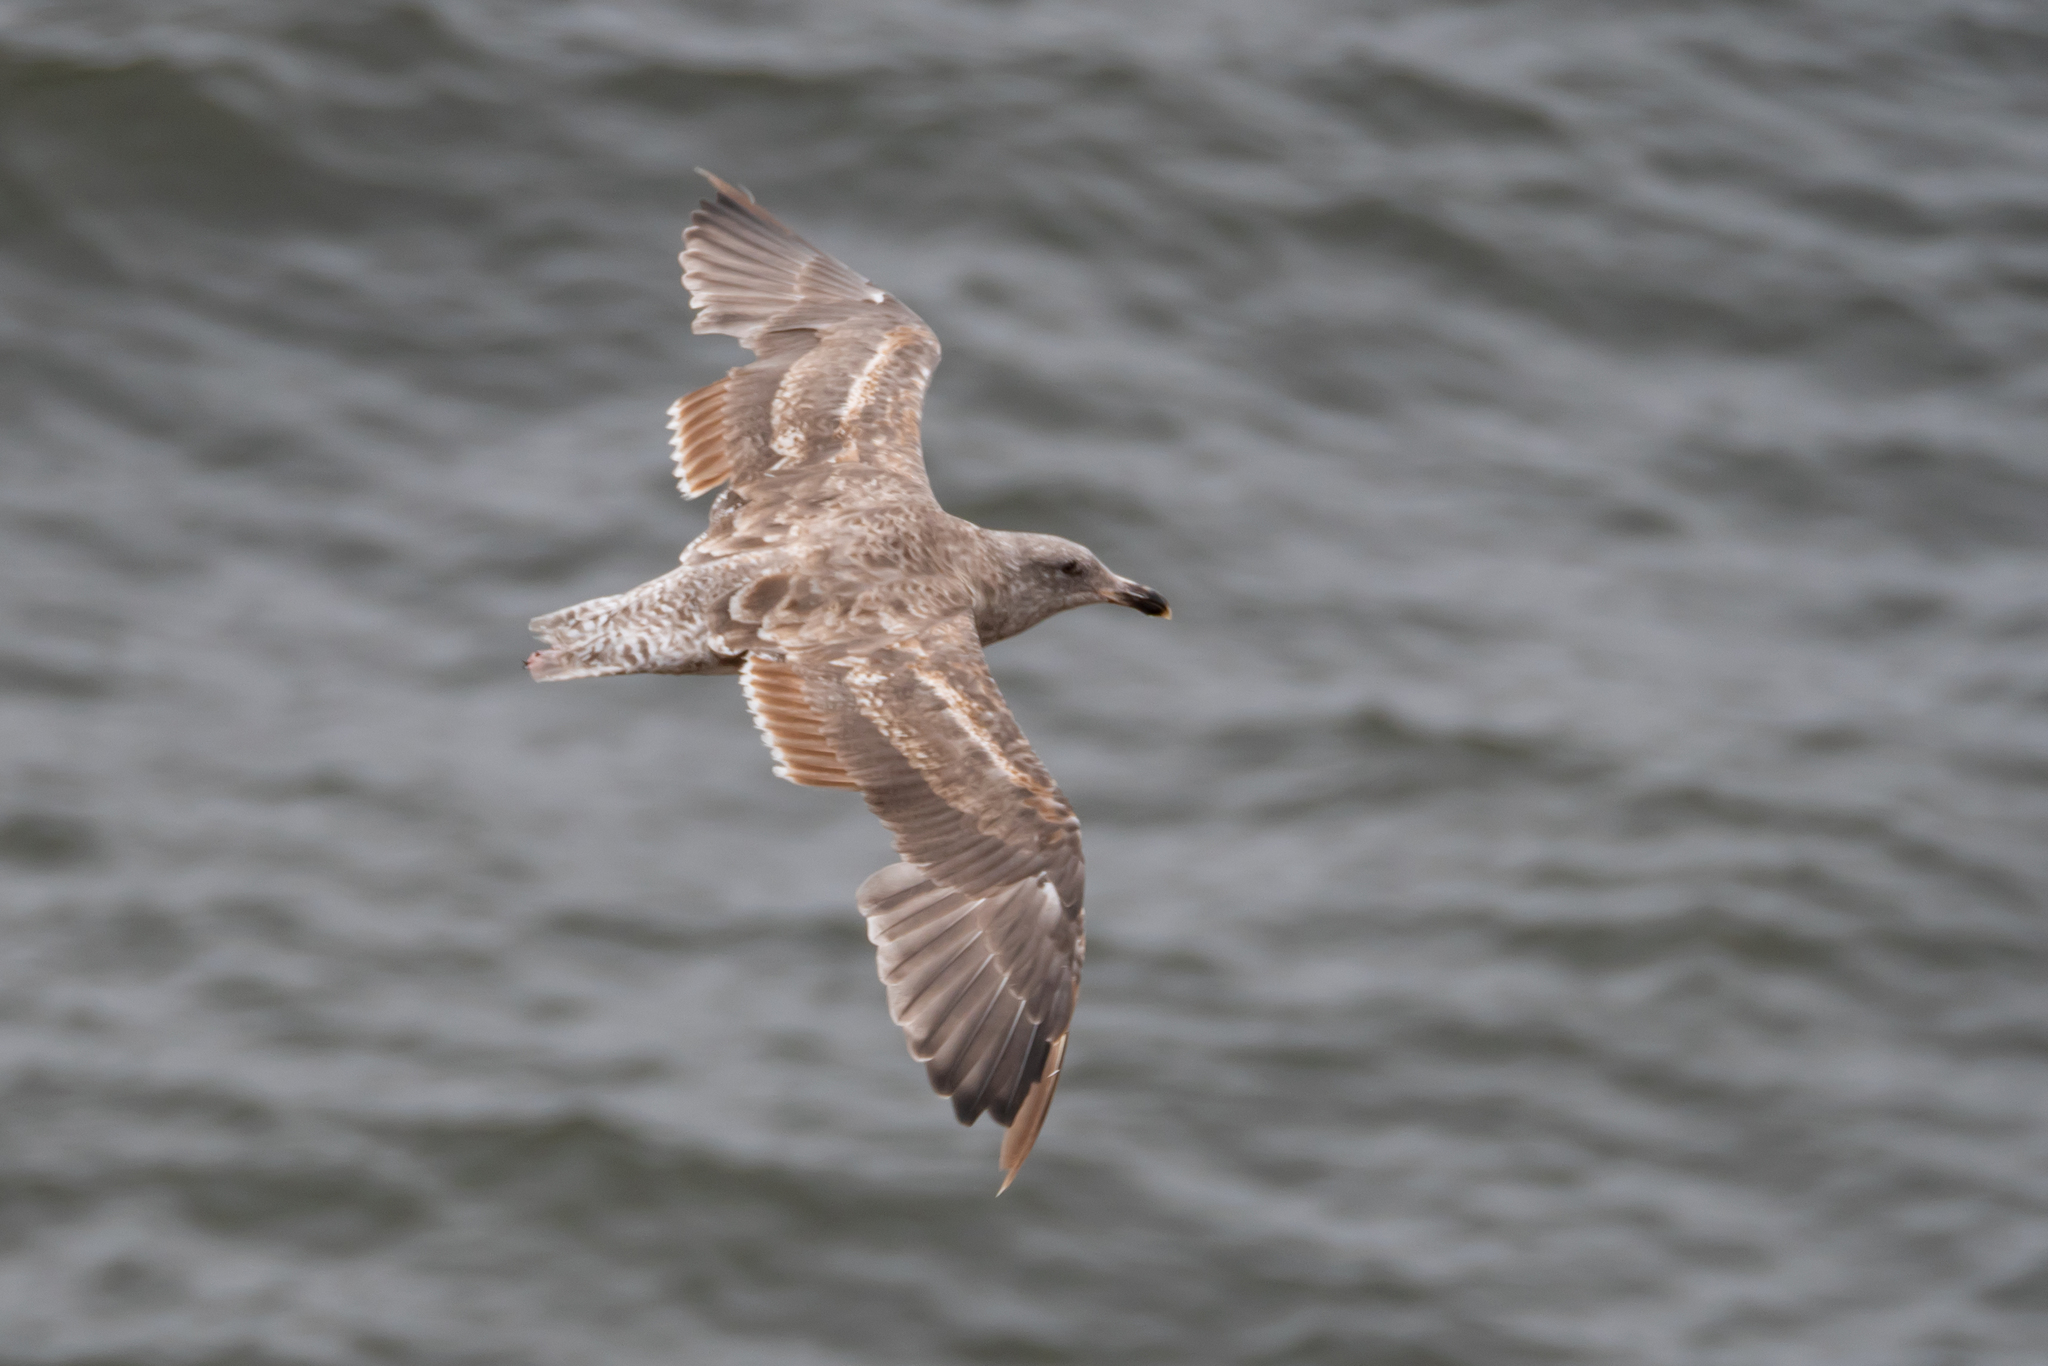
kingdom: Animalia
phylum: Chordata
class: Aves
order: Charadriiformes
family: Laridae
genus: Larus
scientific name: Larus occidentalis
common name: Western gull
